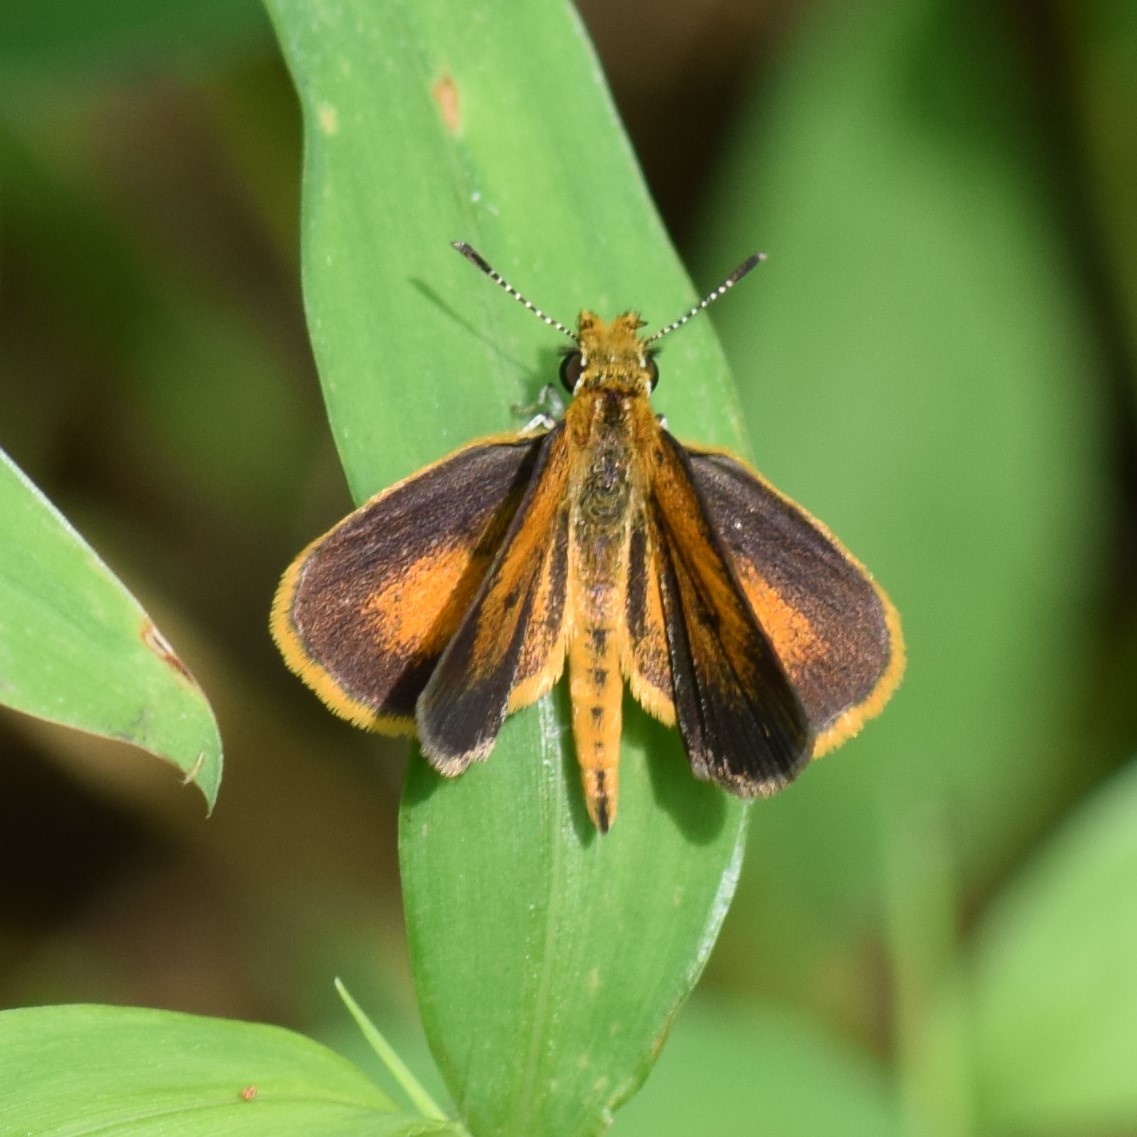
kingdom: Animalia
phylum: Arthropoda
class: Insecta
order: Lepidoptera
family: Hesperiidae
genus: Ancyloxypha
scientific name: Ancyloxypha numitor
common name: Least skipper
